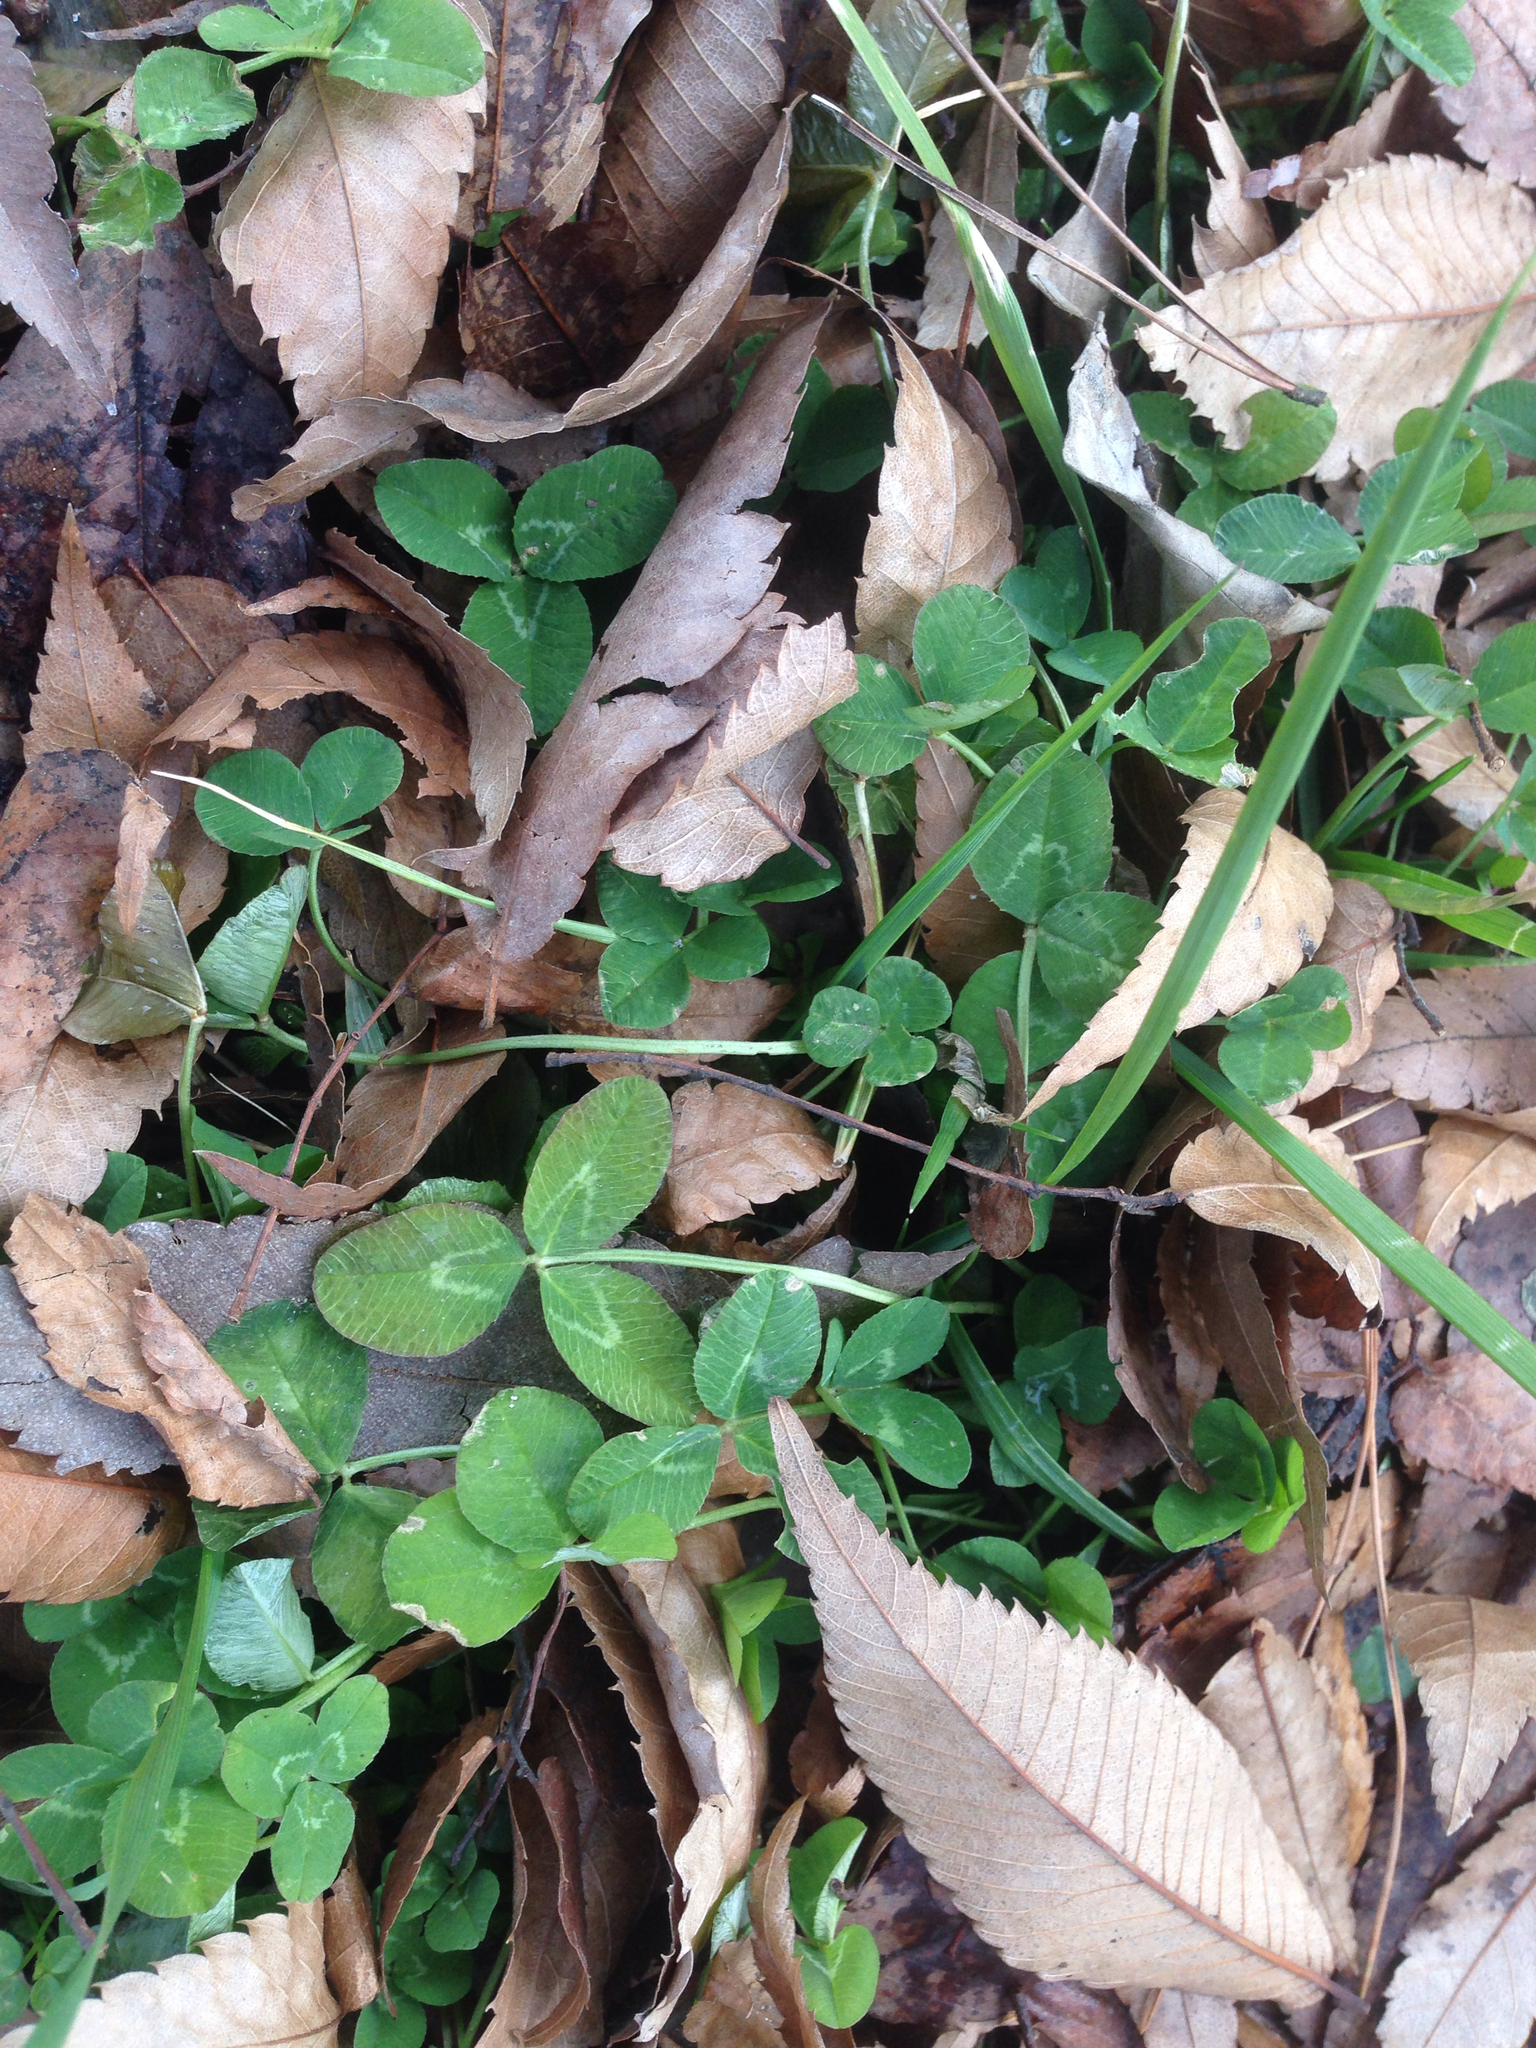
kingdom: Plantae
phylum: Tracheophyta
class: Magnoliopsida
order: Fabales
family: Fabaceae
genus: Trifolium
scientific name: Trifolium repens
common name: White clover
